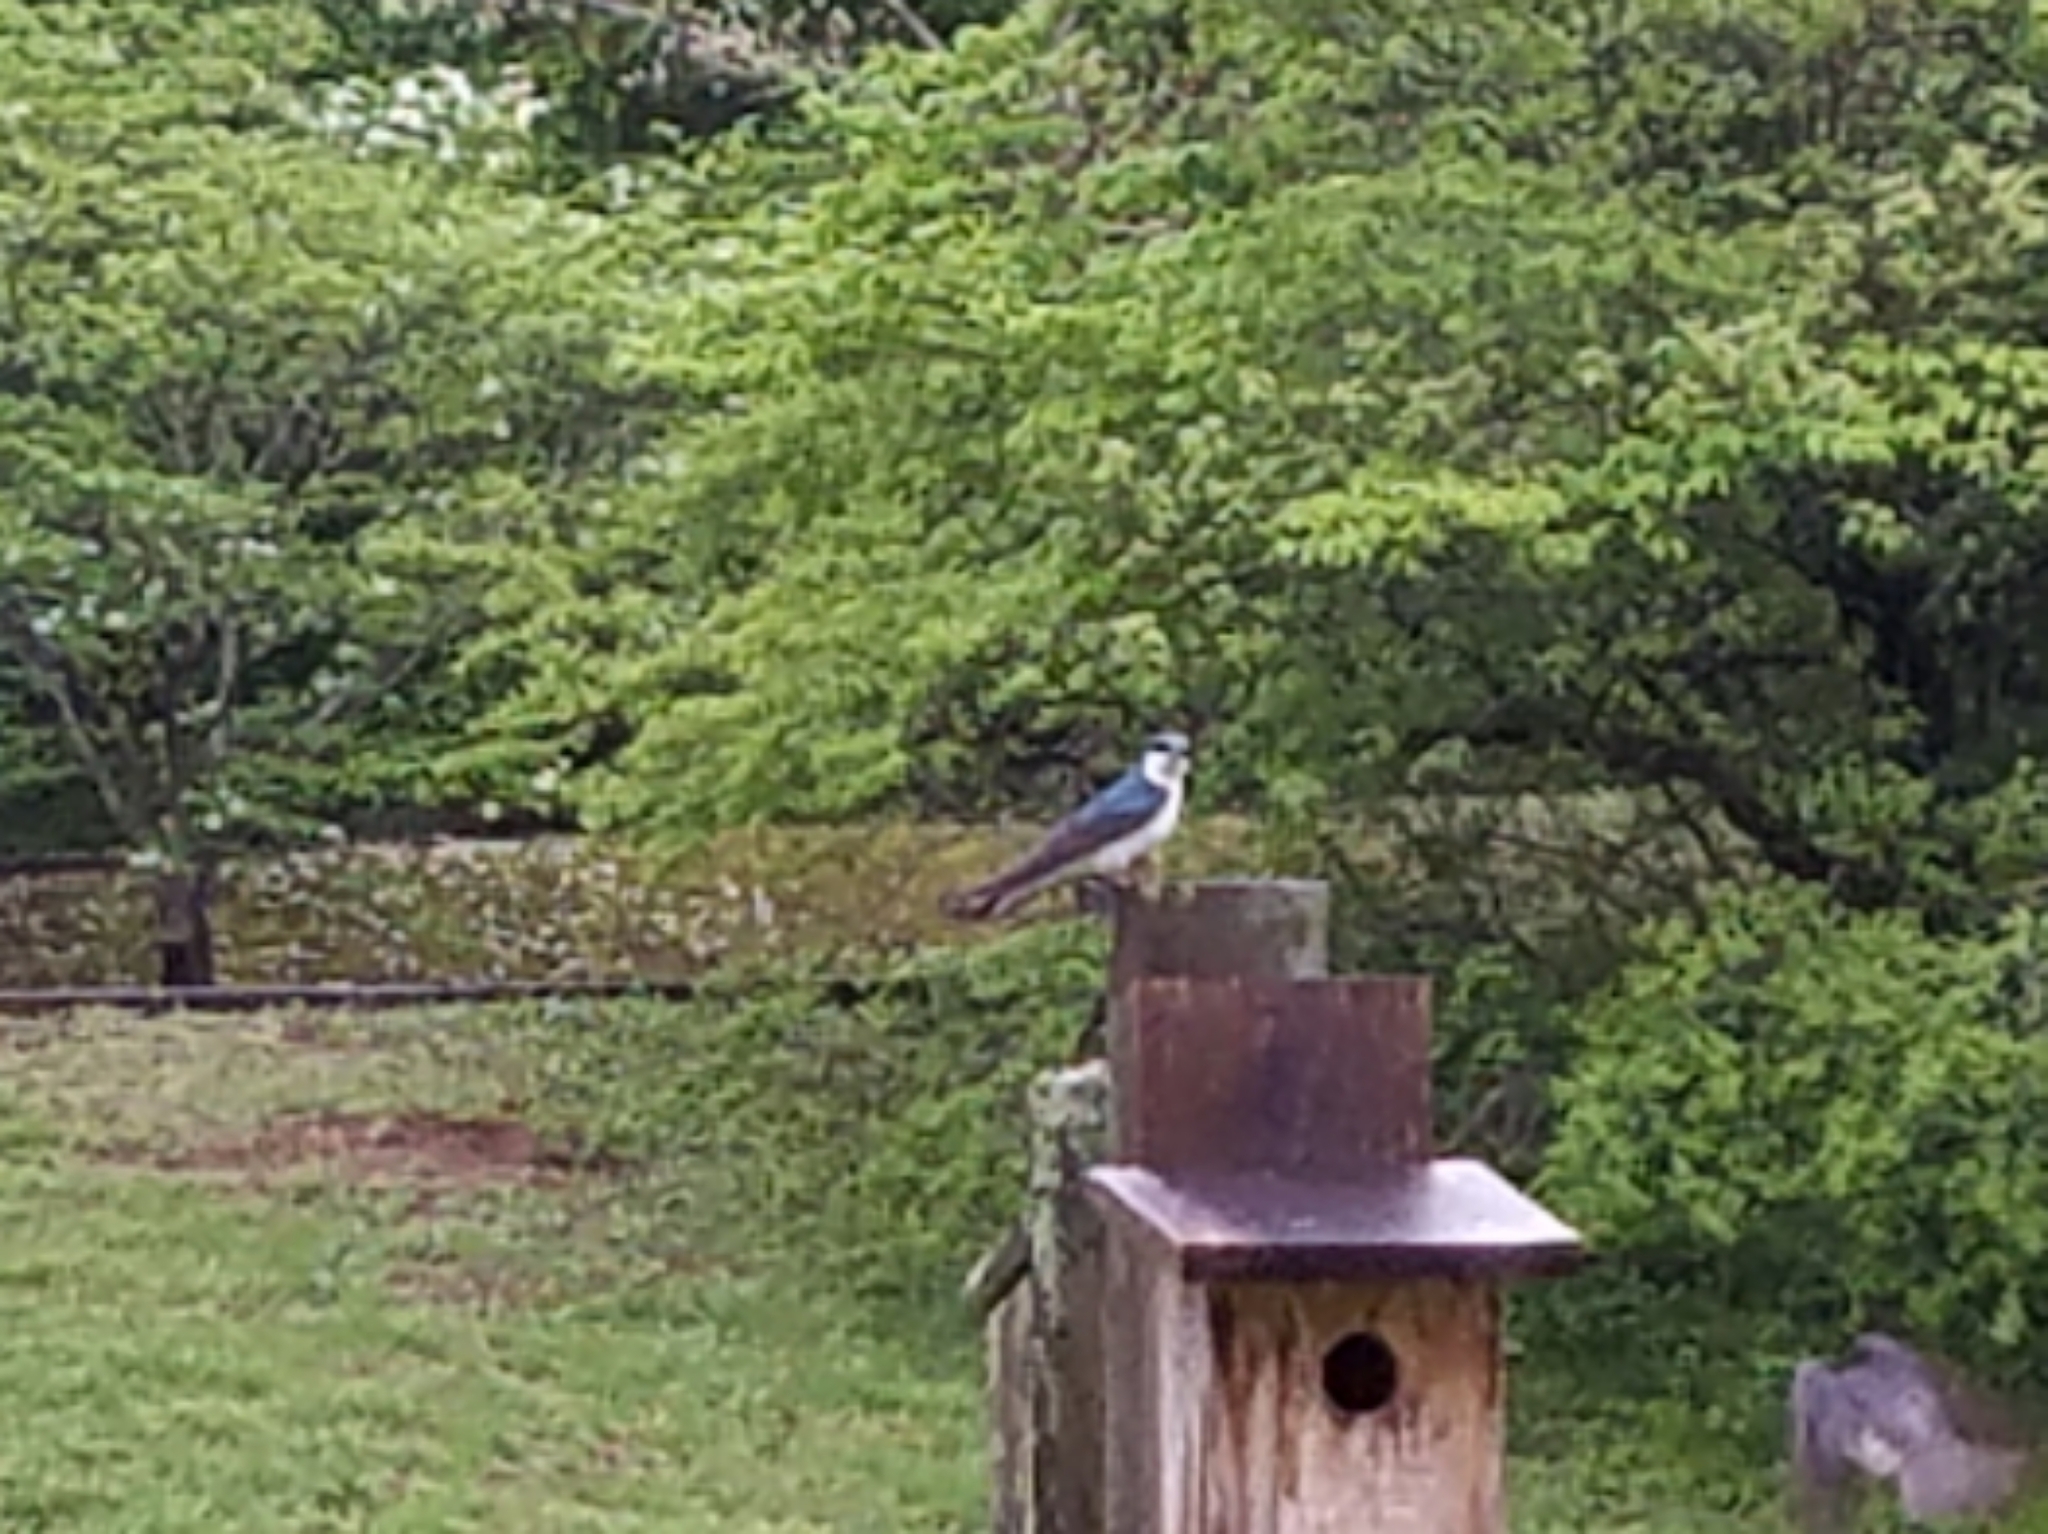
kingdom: Animalia
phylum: Chordata
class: Aves
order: Passeriformes
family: Hirundinidae
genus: Tachycineta
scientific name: Tachycineta bicolor
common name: Tree swallow
